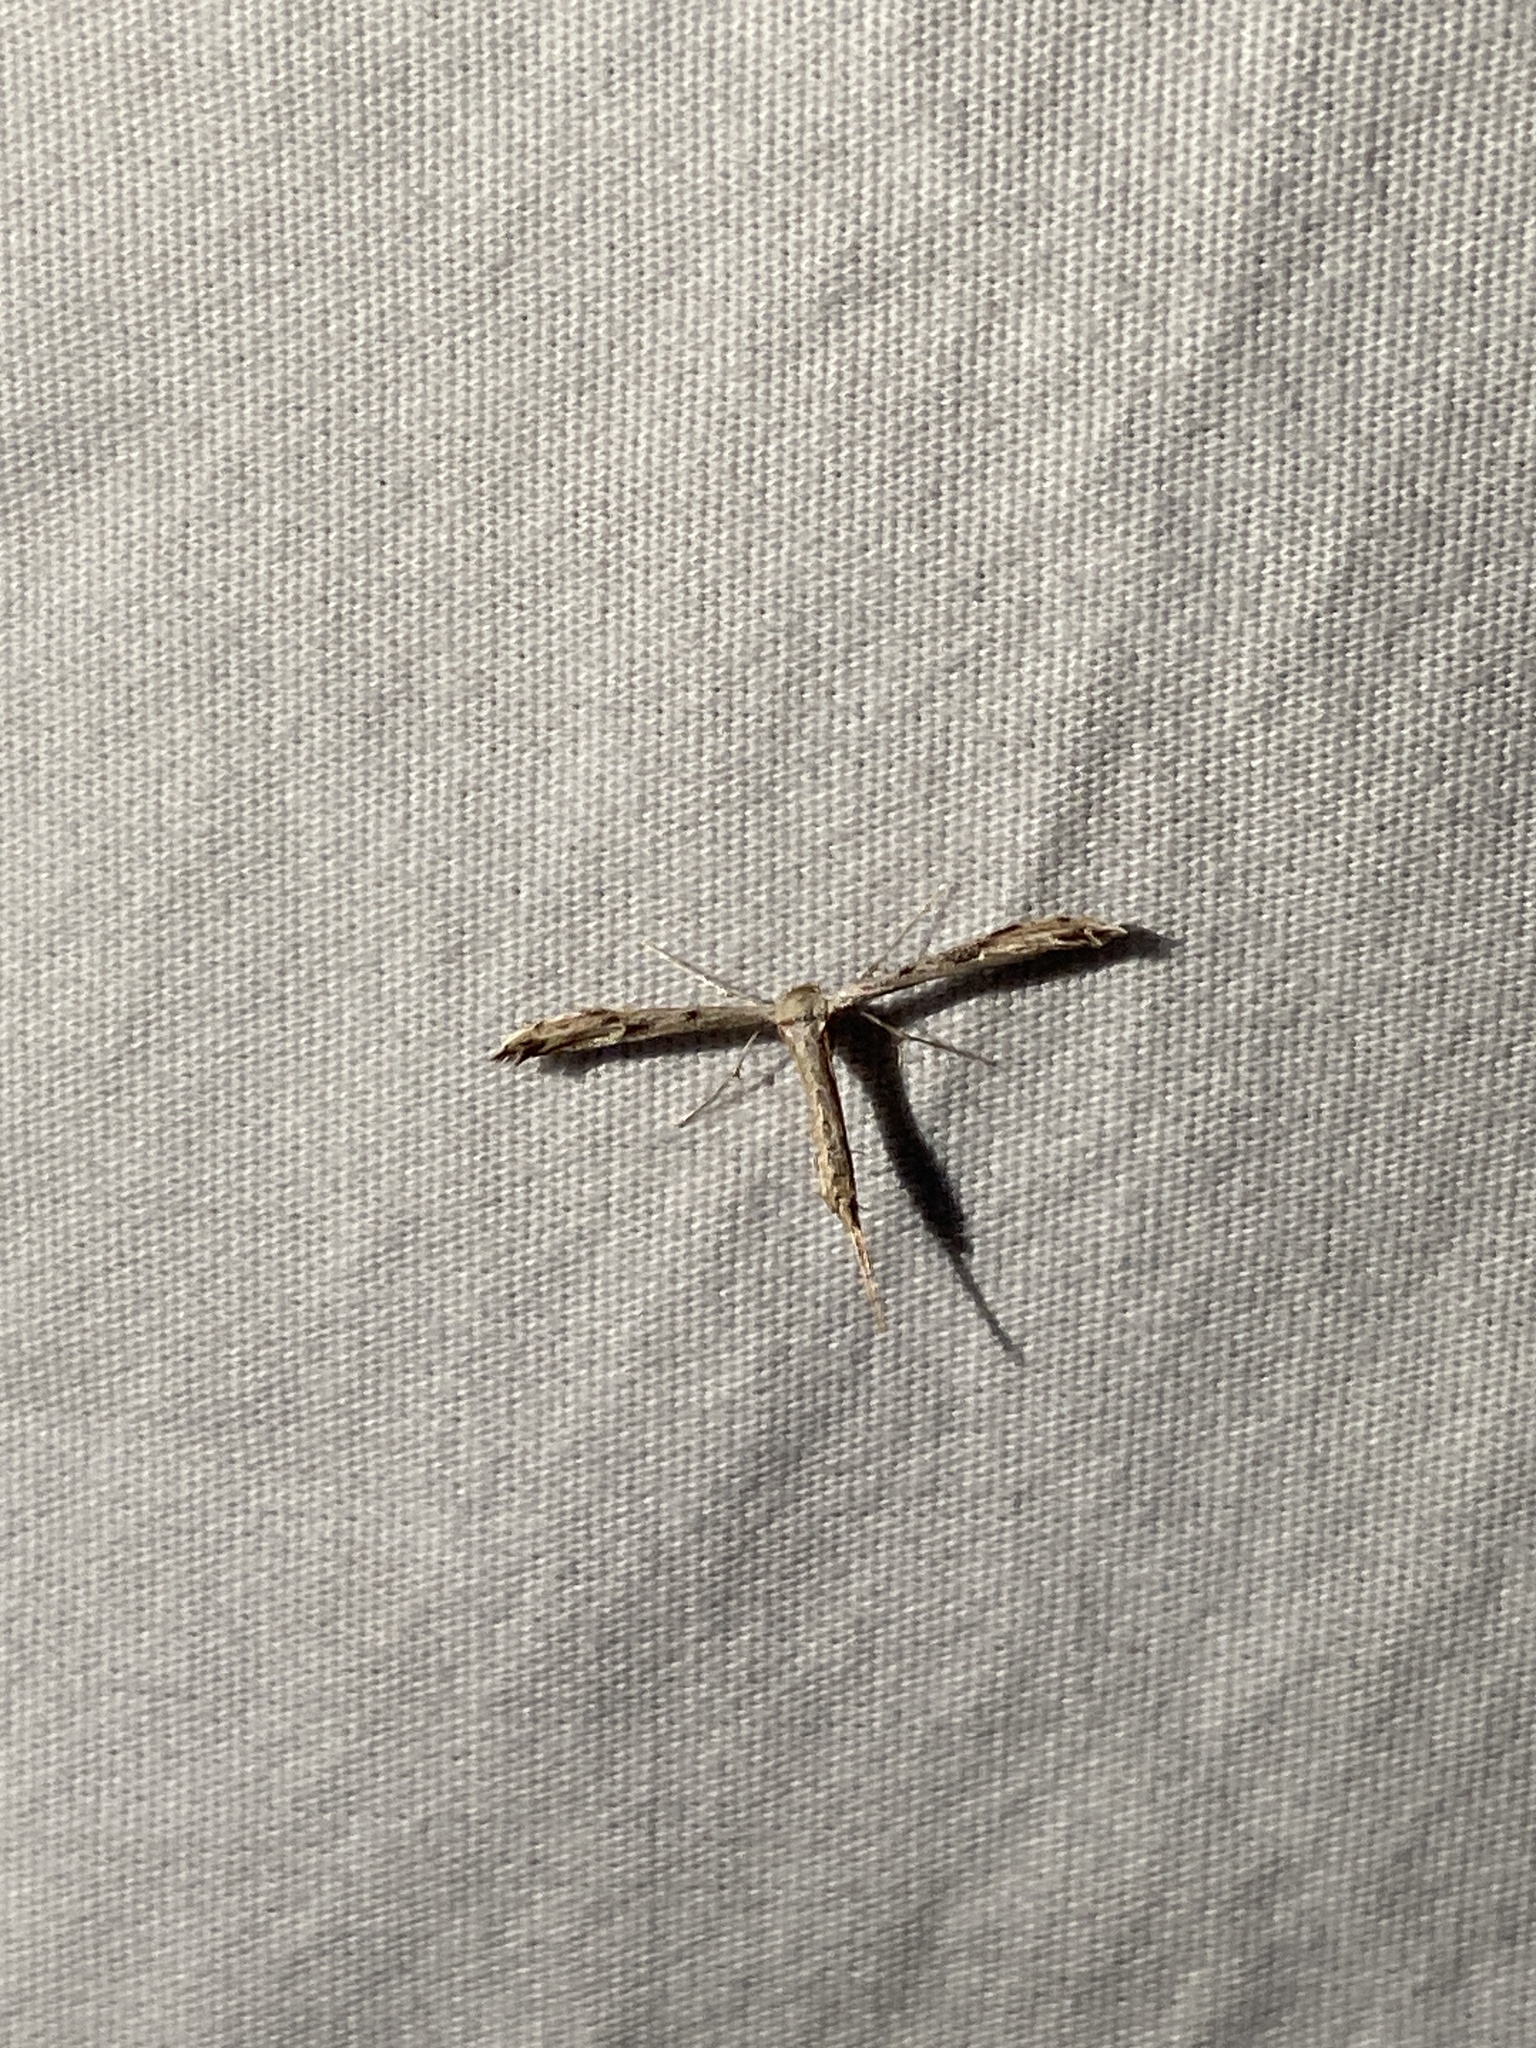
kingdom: Animalia
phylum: Arthropoda
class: Insecta
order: Lepidoptera
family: Pterophoridae
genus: Adaina
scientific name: Adaina ambrosiae
